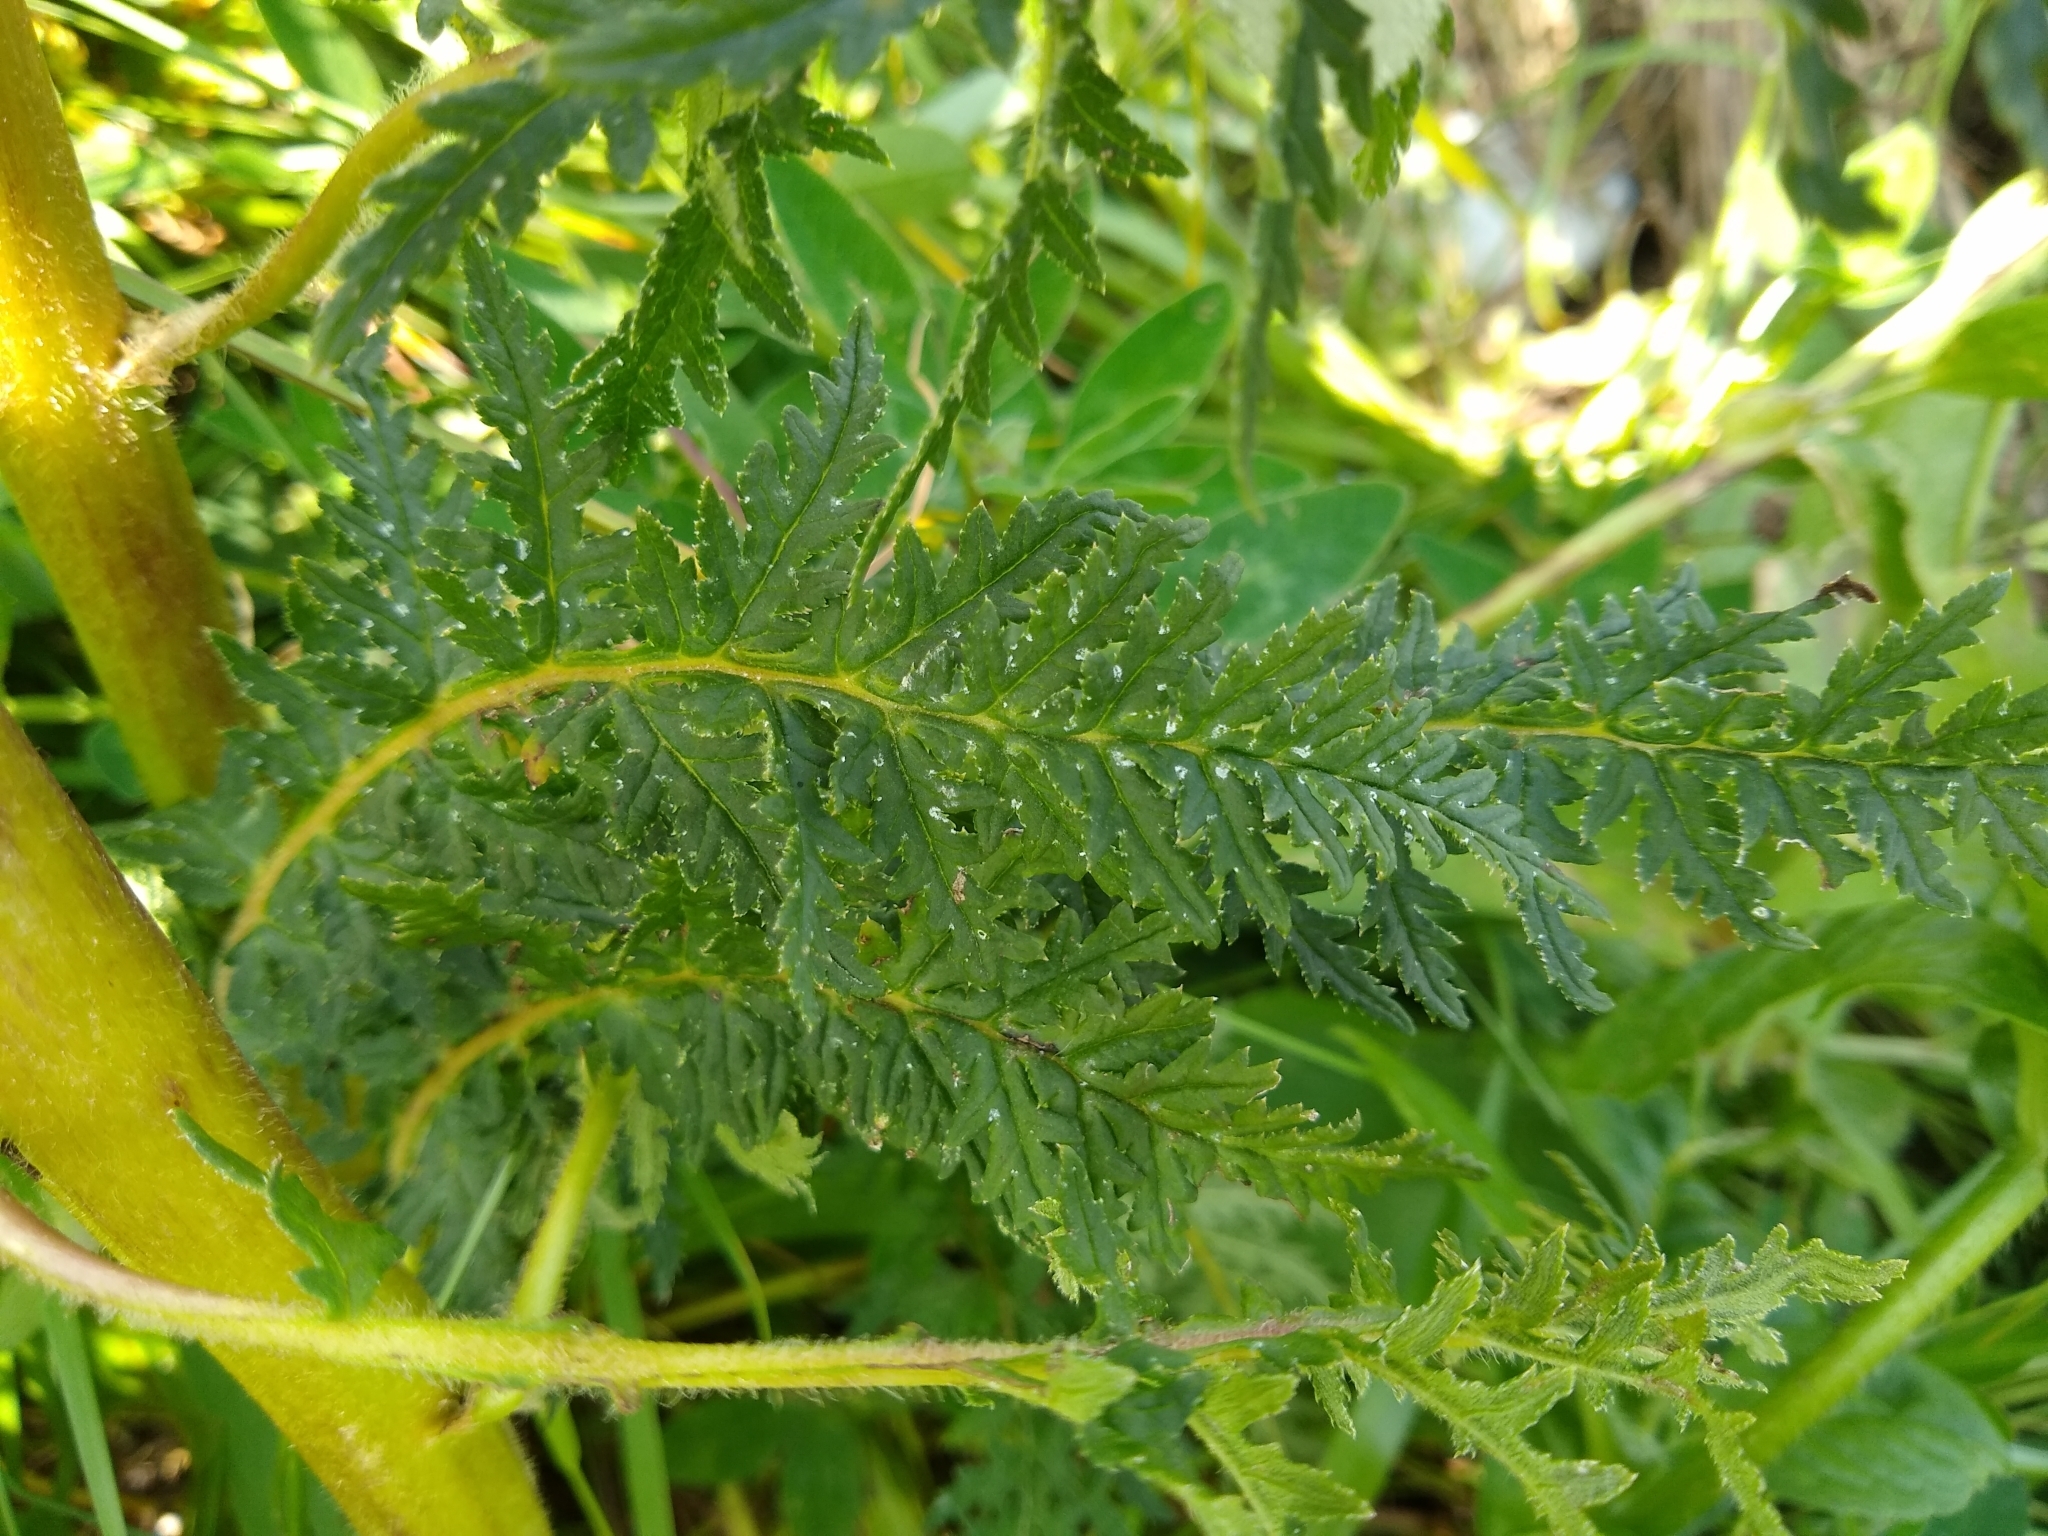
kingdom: Plantae
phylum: Tracheophyta
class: Magnoliopsida
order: Lamiales
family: Orobanchaceae
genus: Pedicularis
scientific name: Pedicularis foliosa
